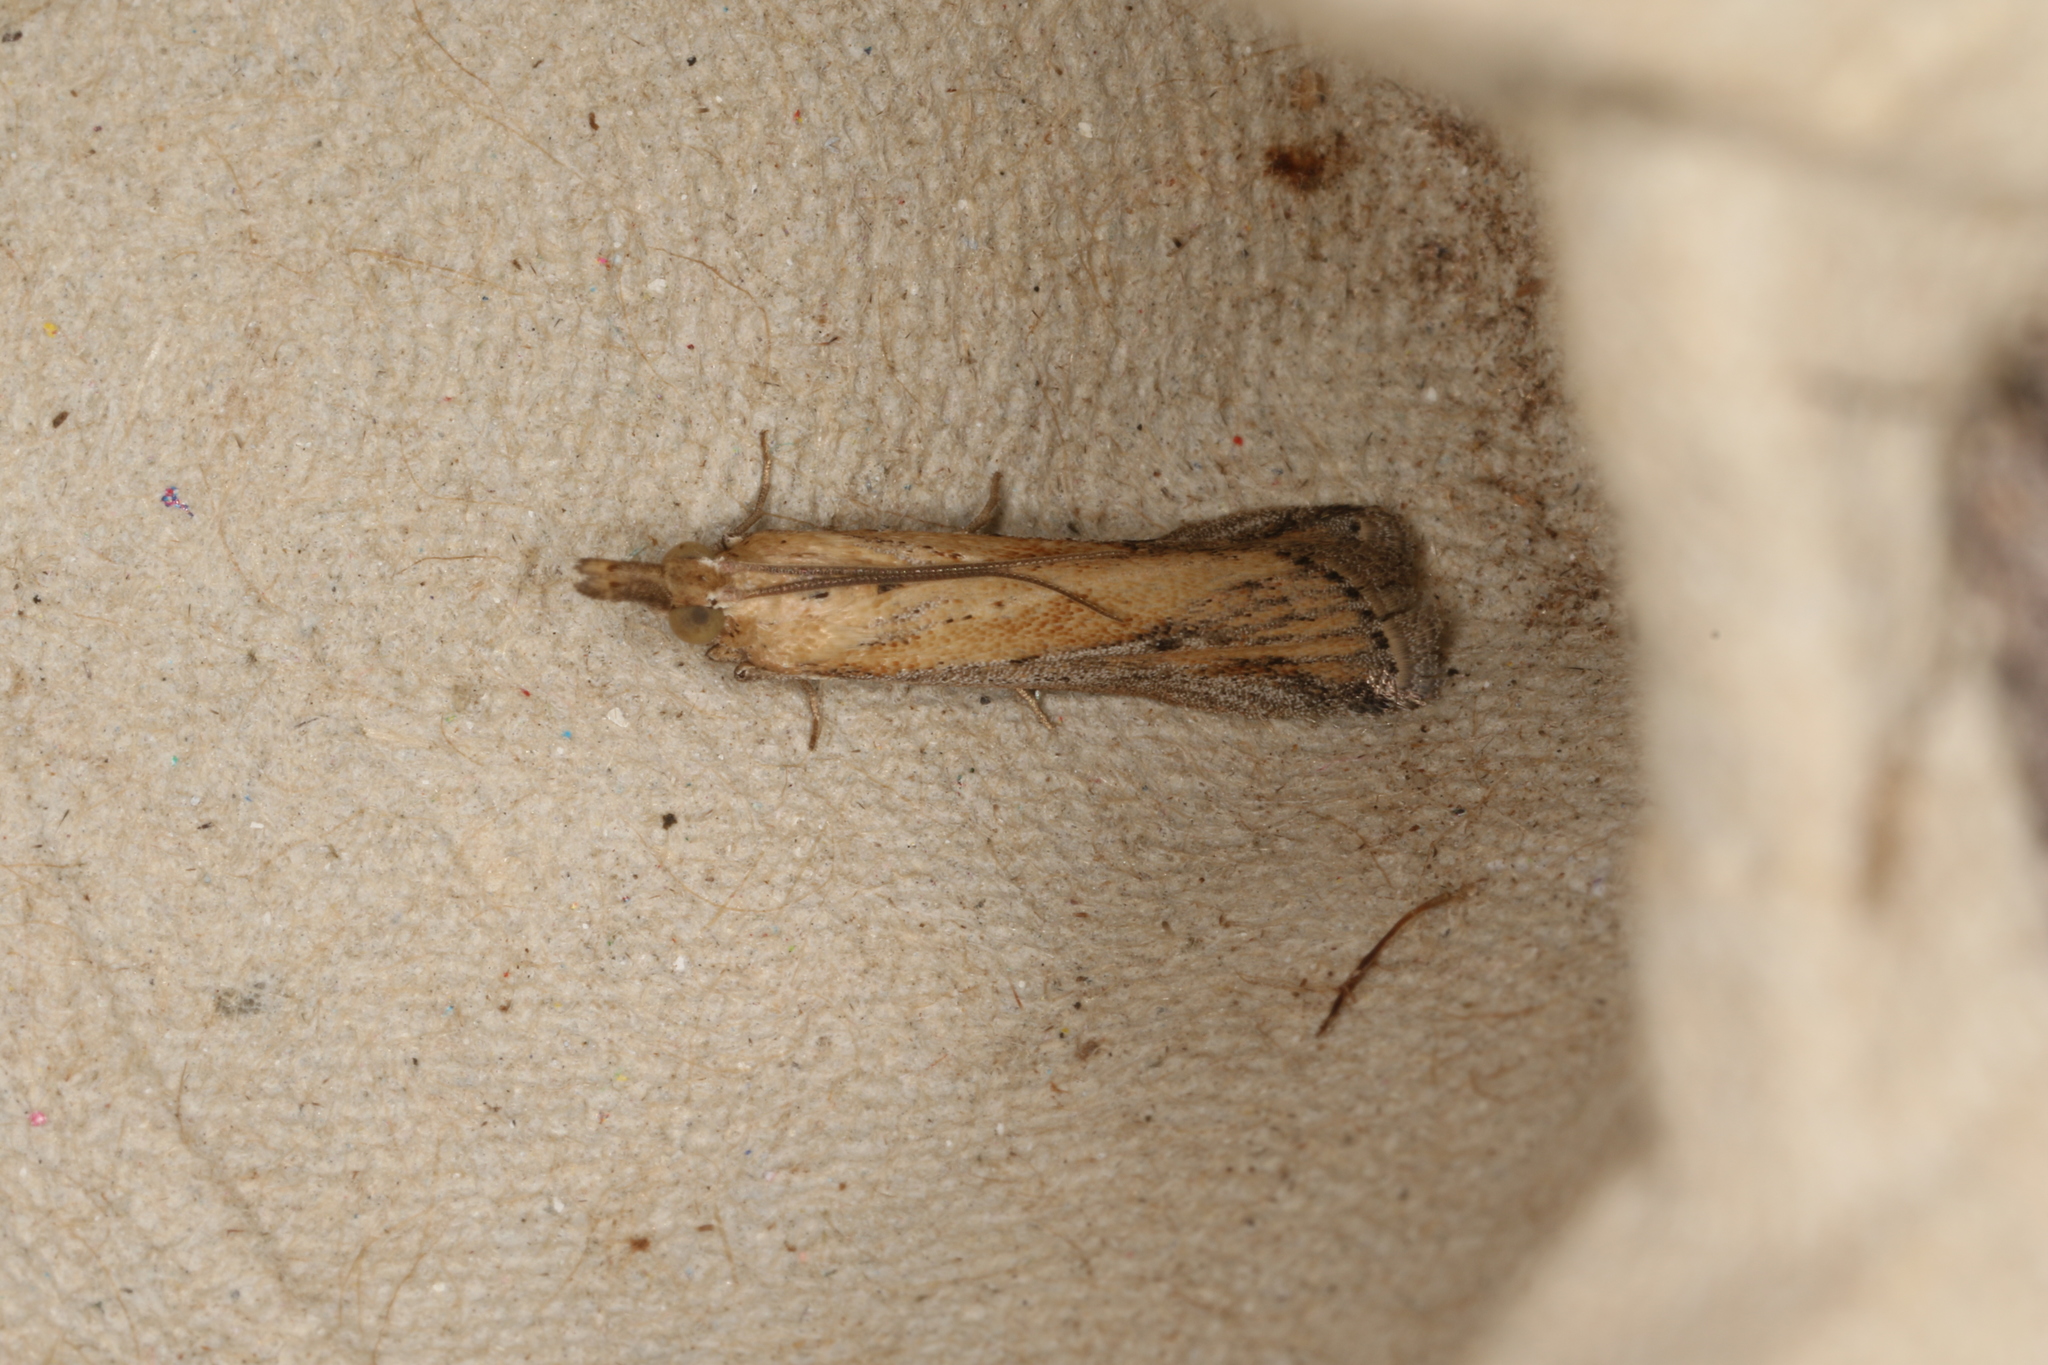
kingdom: Animalia
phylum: Arthropoda
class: Insecta
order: Lepidoptera
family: Pyralidae
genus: Faveria
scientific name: Faveria tritalis
